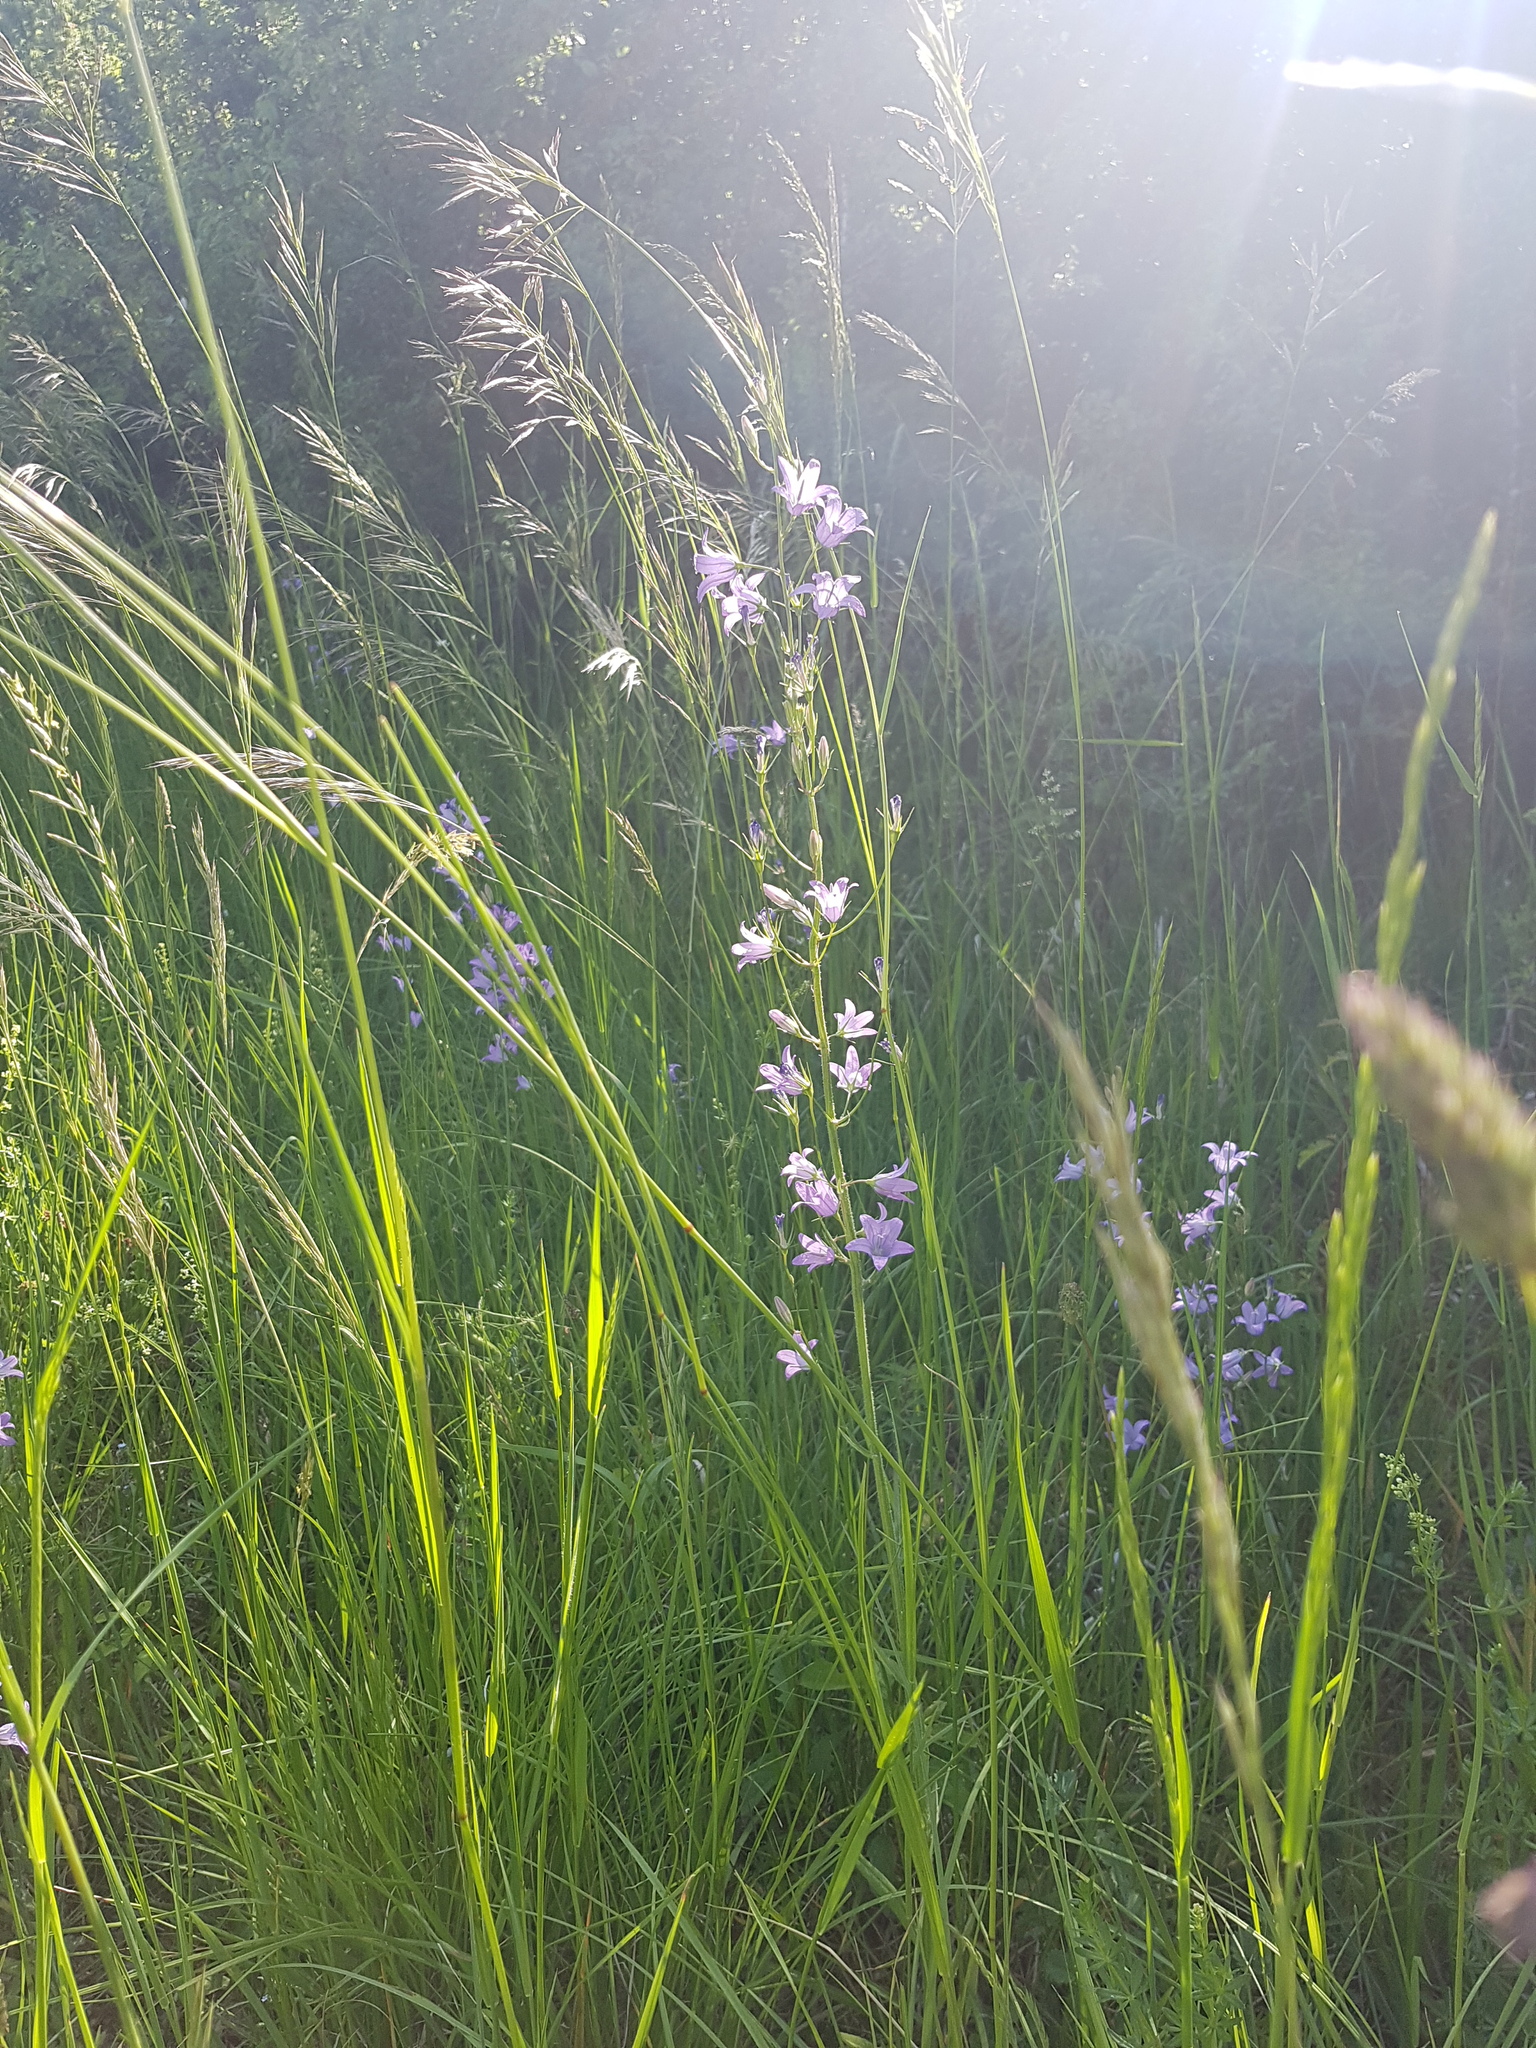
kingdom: Plantae
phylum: Tracheophyta
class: Magnoliopsida
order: Asterales
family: Campanulaceae
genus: Campanula
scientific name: Campanula rapunculus
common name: Rampion bellflower
